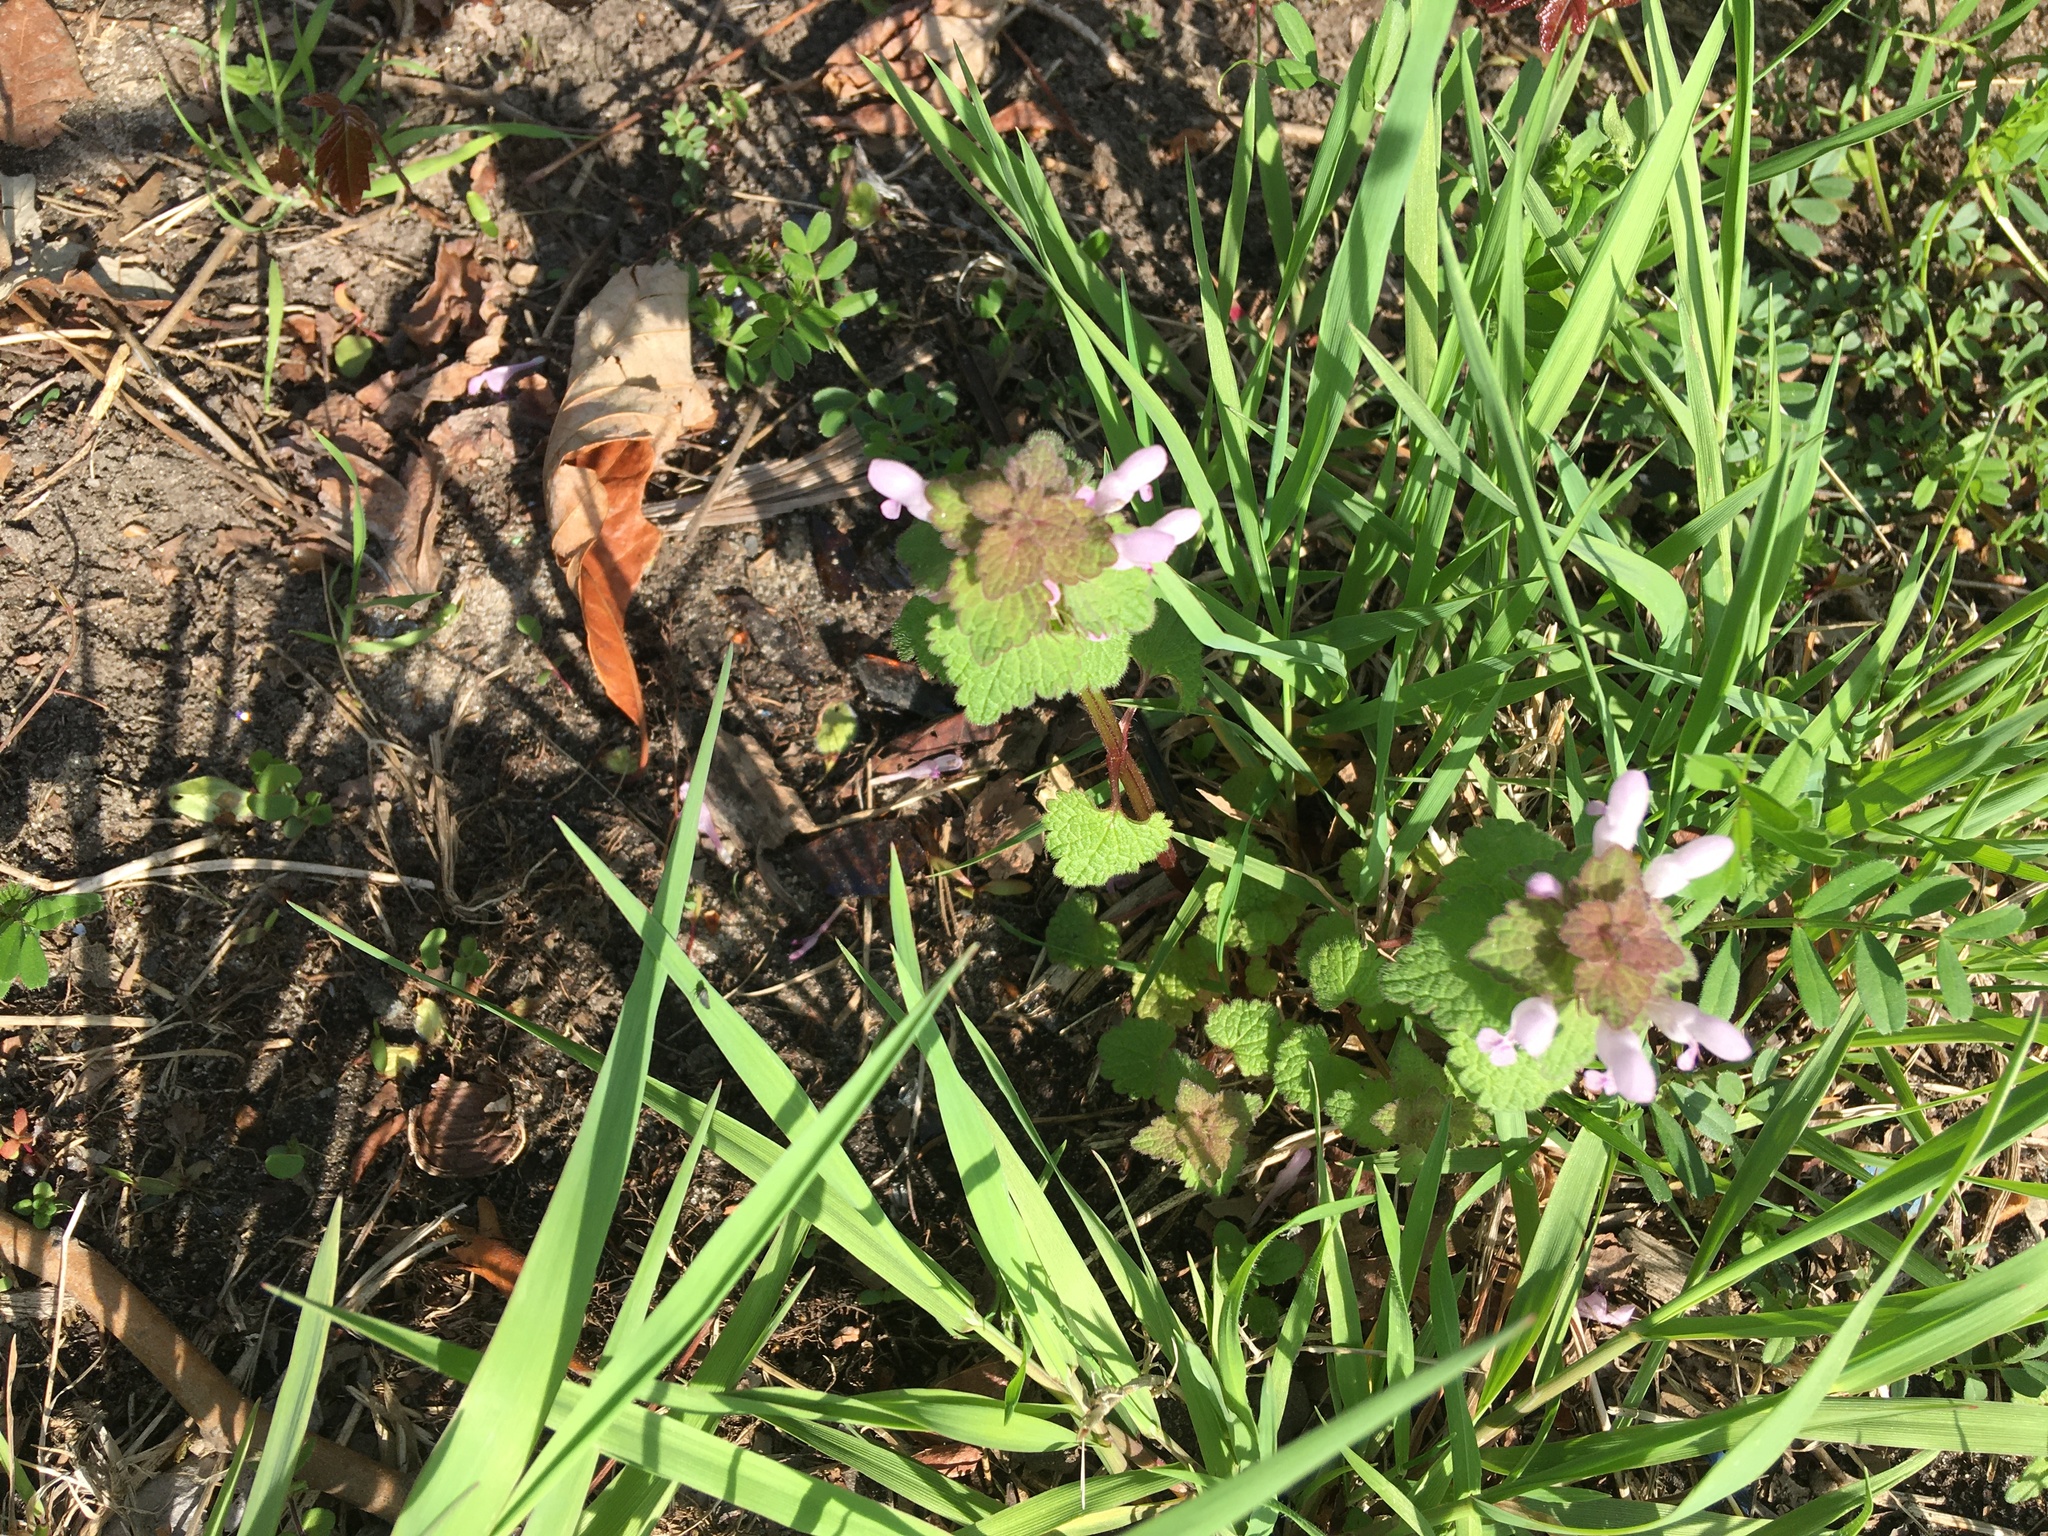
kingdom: Plantae
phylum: Tracheophyta
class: Magnoliopsida
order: Lamiales
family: Lamiaceae
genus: Lamium
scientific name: Lamium purpureum
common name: Red dead-nettle
